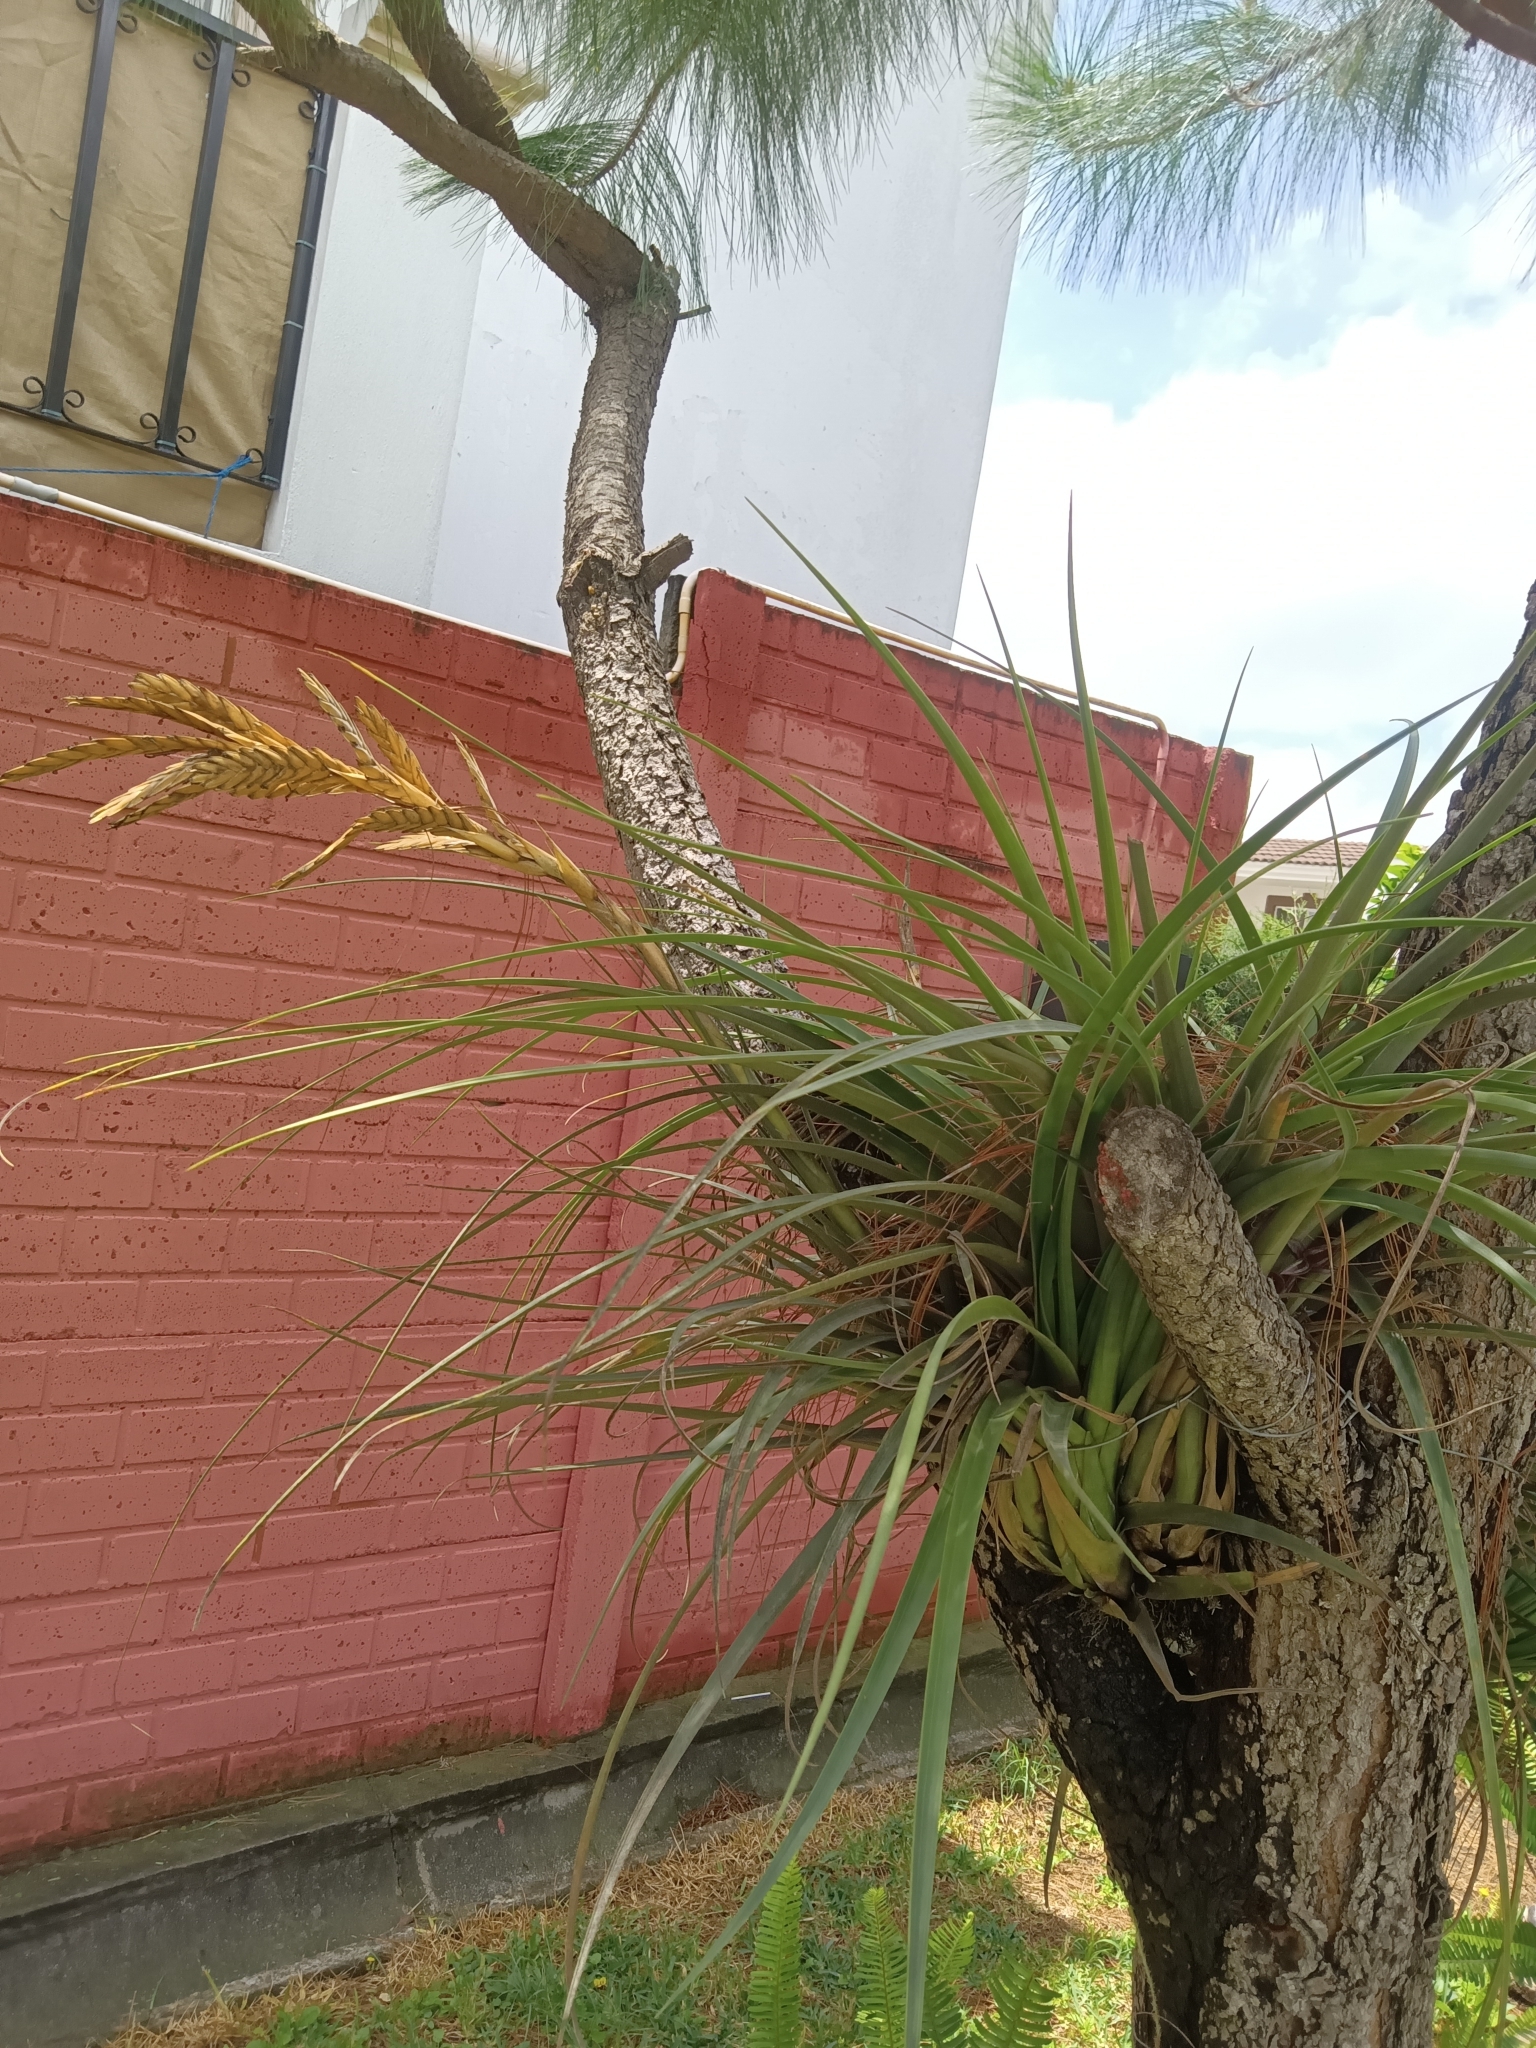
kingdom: Plantae
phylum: Tracheophyta
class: Liliopsida
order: Poales
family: Bromeliaceae
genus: Tillandsia
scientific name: Tillandsia rodrigueziana
